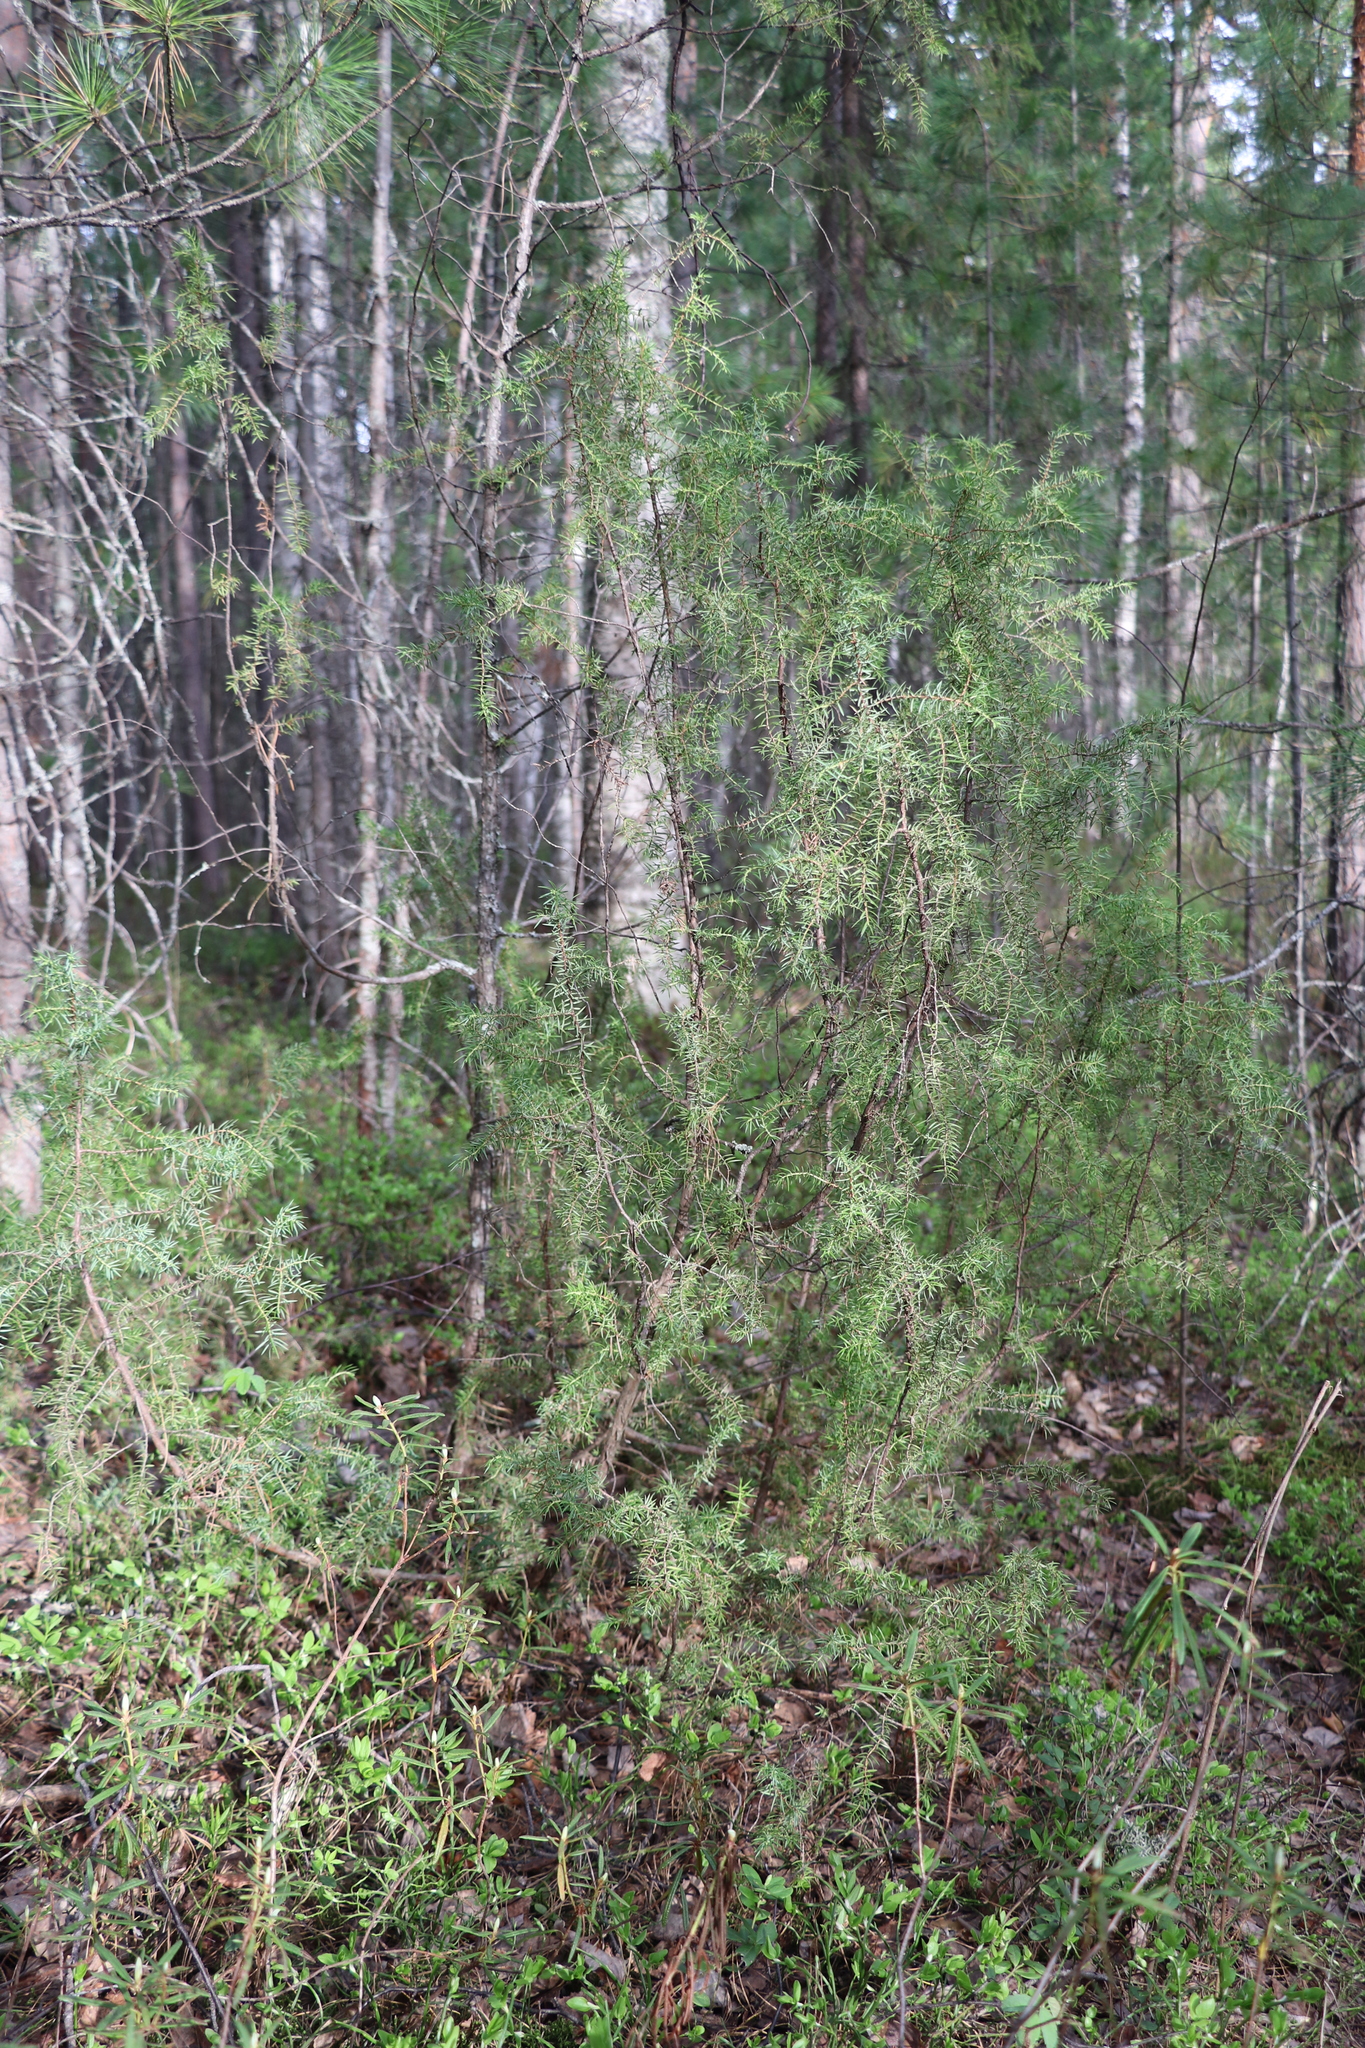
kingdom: Plantae
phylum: Tracheophyta
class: Pinopsida
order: Pinales
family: Cupressaceae
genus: Juniperus
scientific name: Juniperus communis
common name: Common juniper
